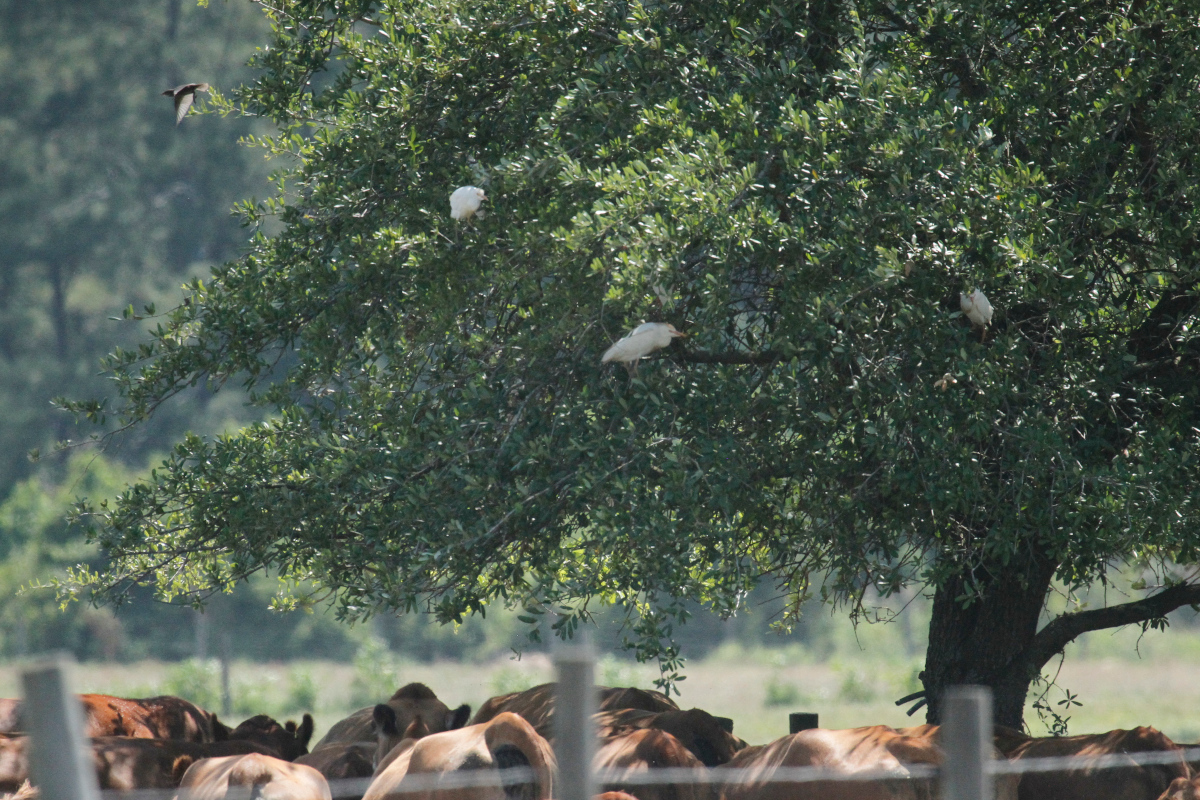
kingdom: Animalia
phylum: Chordata
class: Aves
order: Pelecaniformes
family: Ardeidae
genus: Bubulcus
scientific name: Bubulcus ibis
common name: Cattle egret
